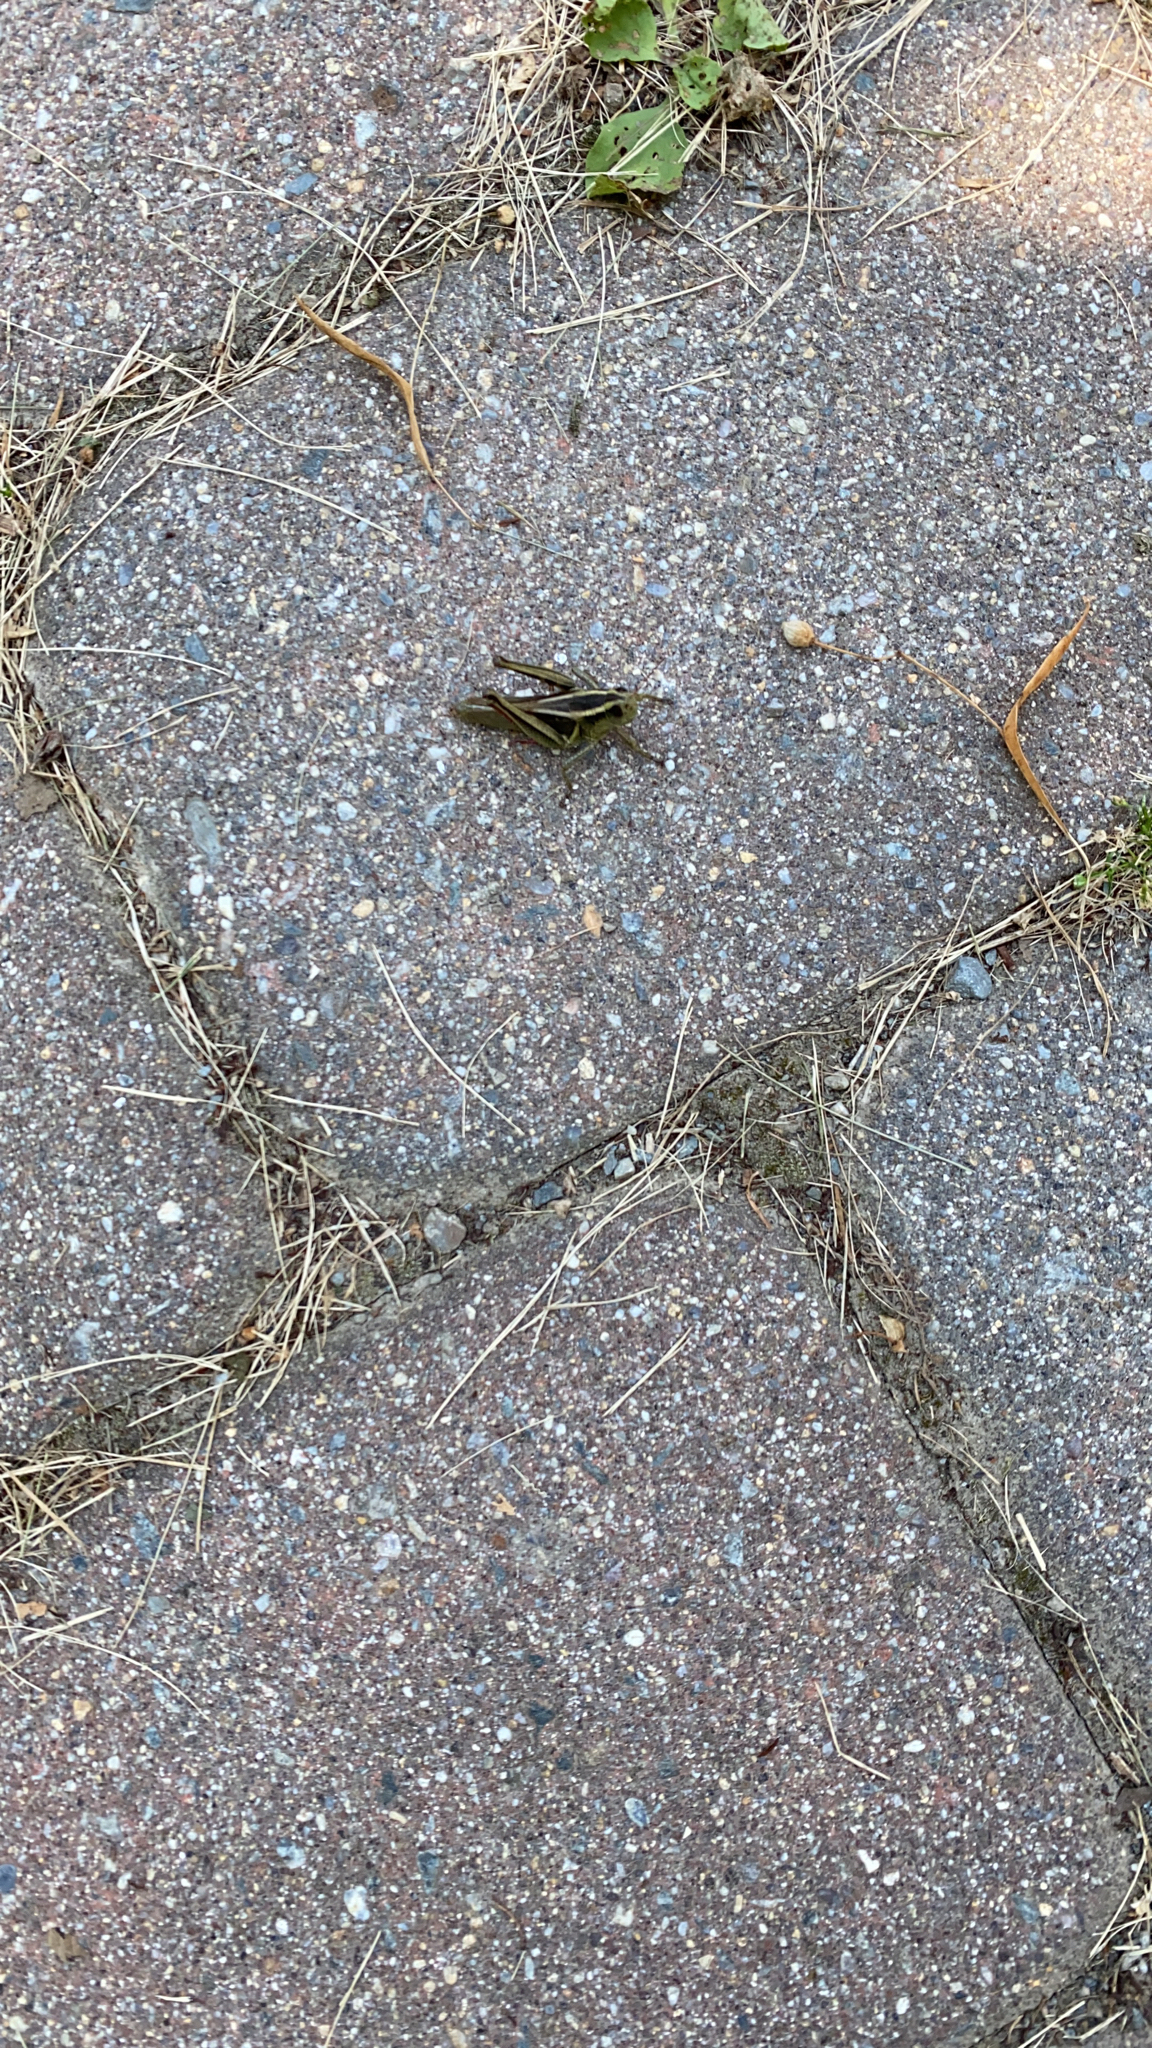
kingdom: Animalia
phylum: Arthropoda
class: Insecta
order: Orthoptera
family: Acrididae
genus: Melanoplus
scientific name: Melanoplus bivittatus
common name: Two-striped grasshopper
